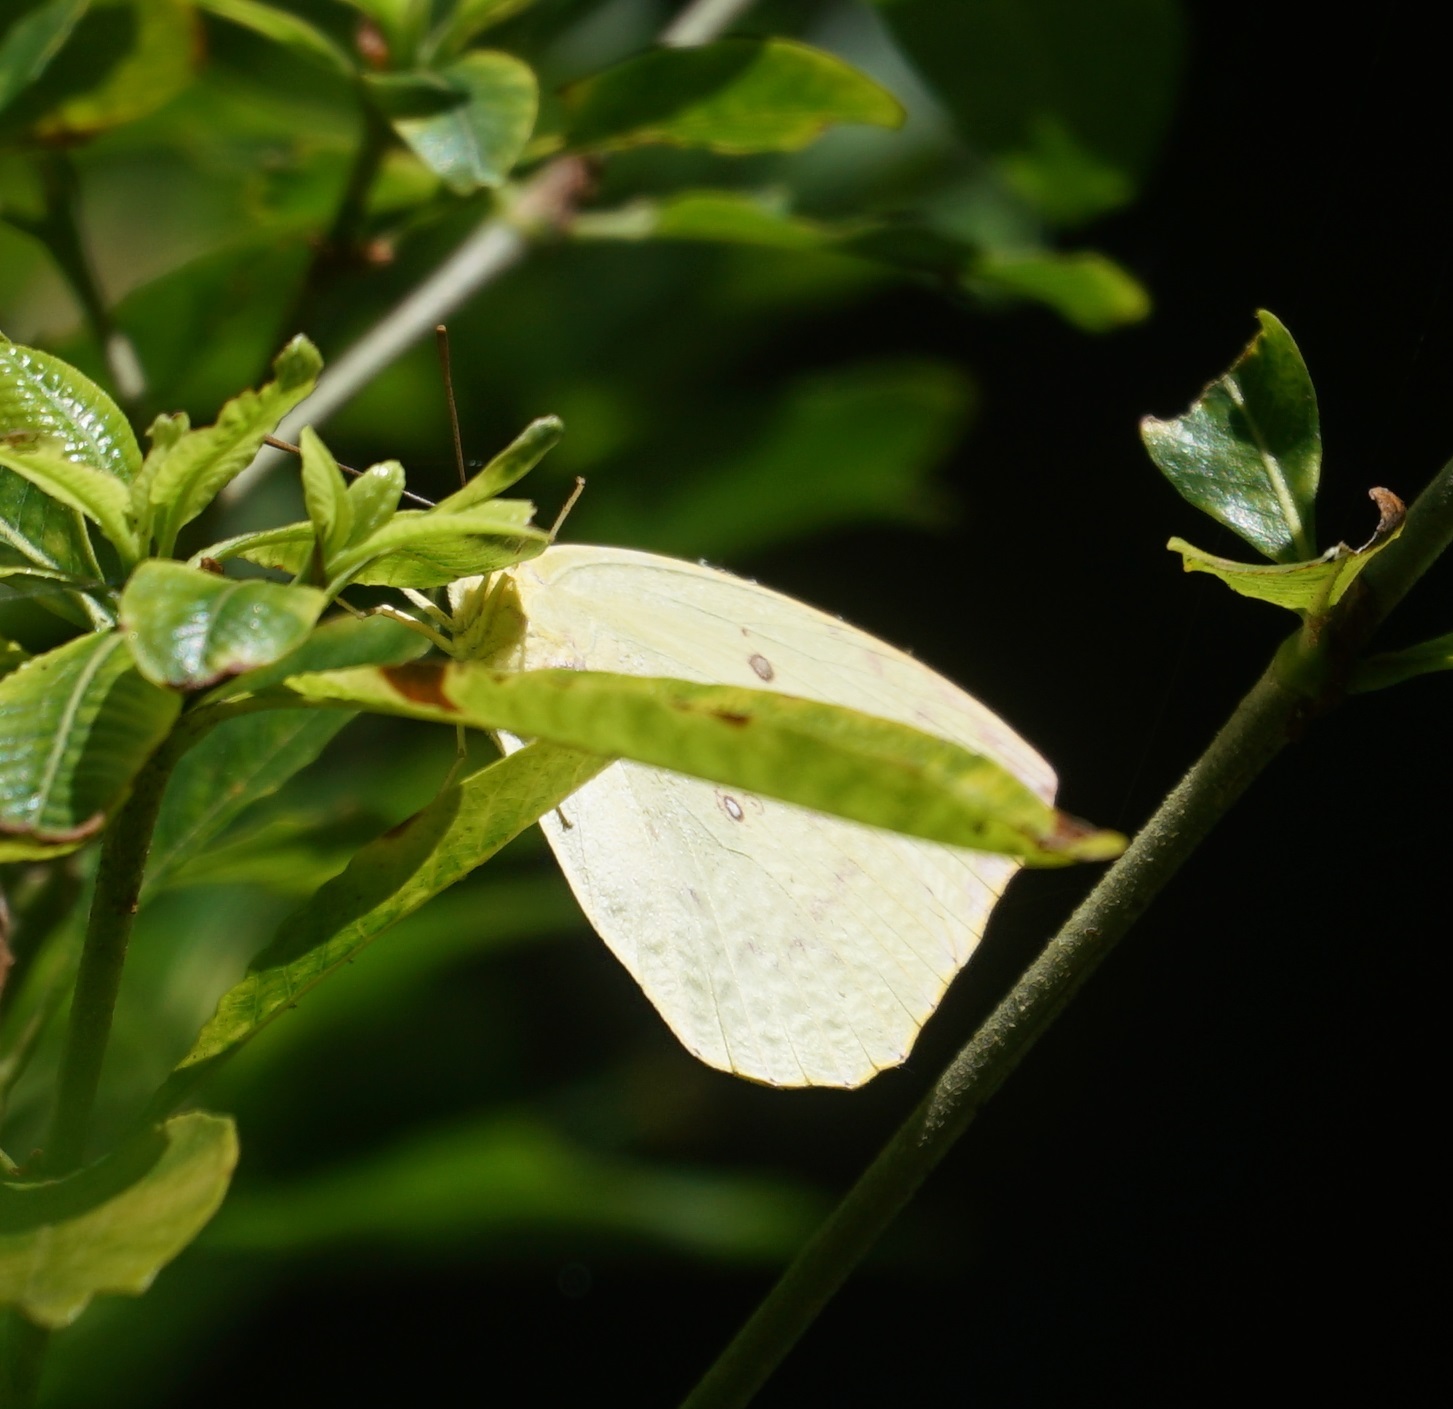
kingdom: Animalia
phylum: Arthropoda
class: Insecta
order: Lepidoptera
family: Pieridae
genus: Catopsilia
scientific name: Catopsilia pomona
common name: Common emigrant
